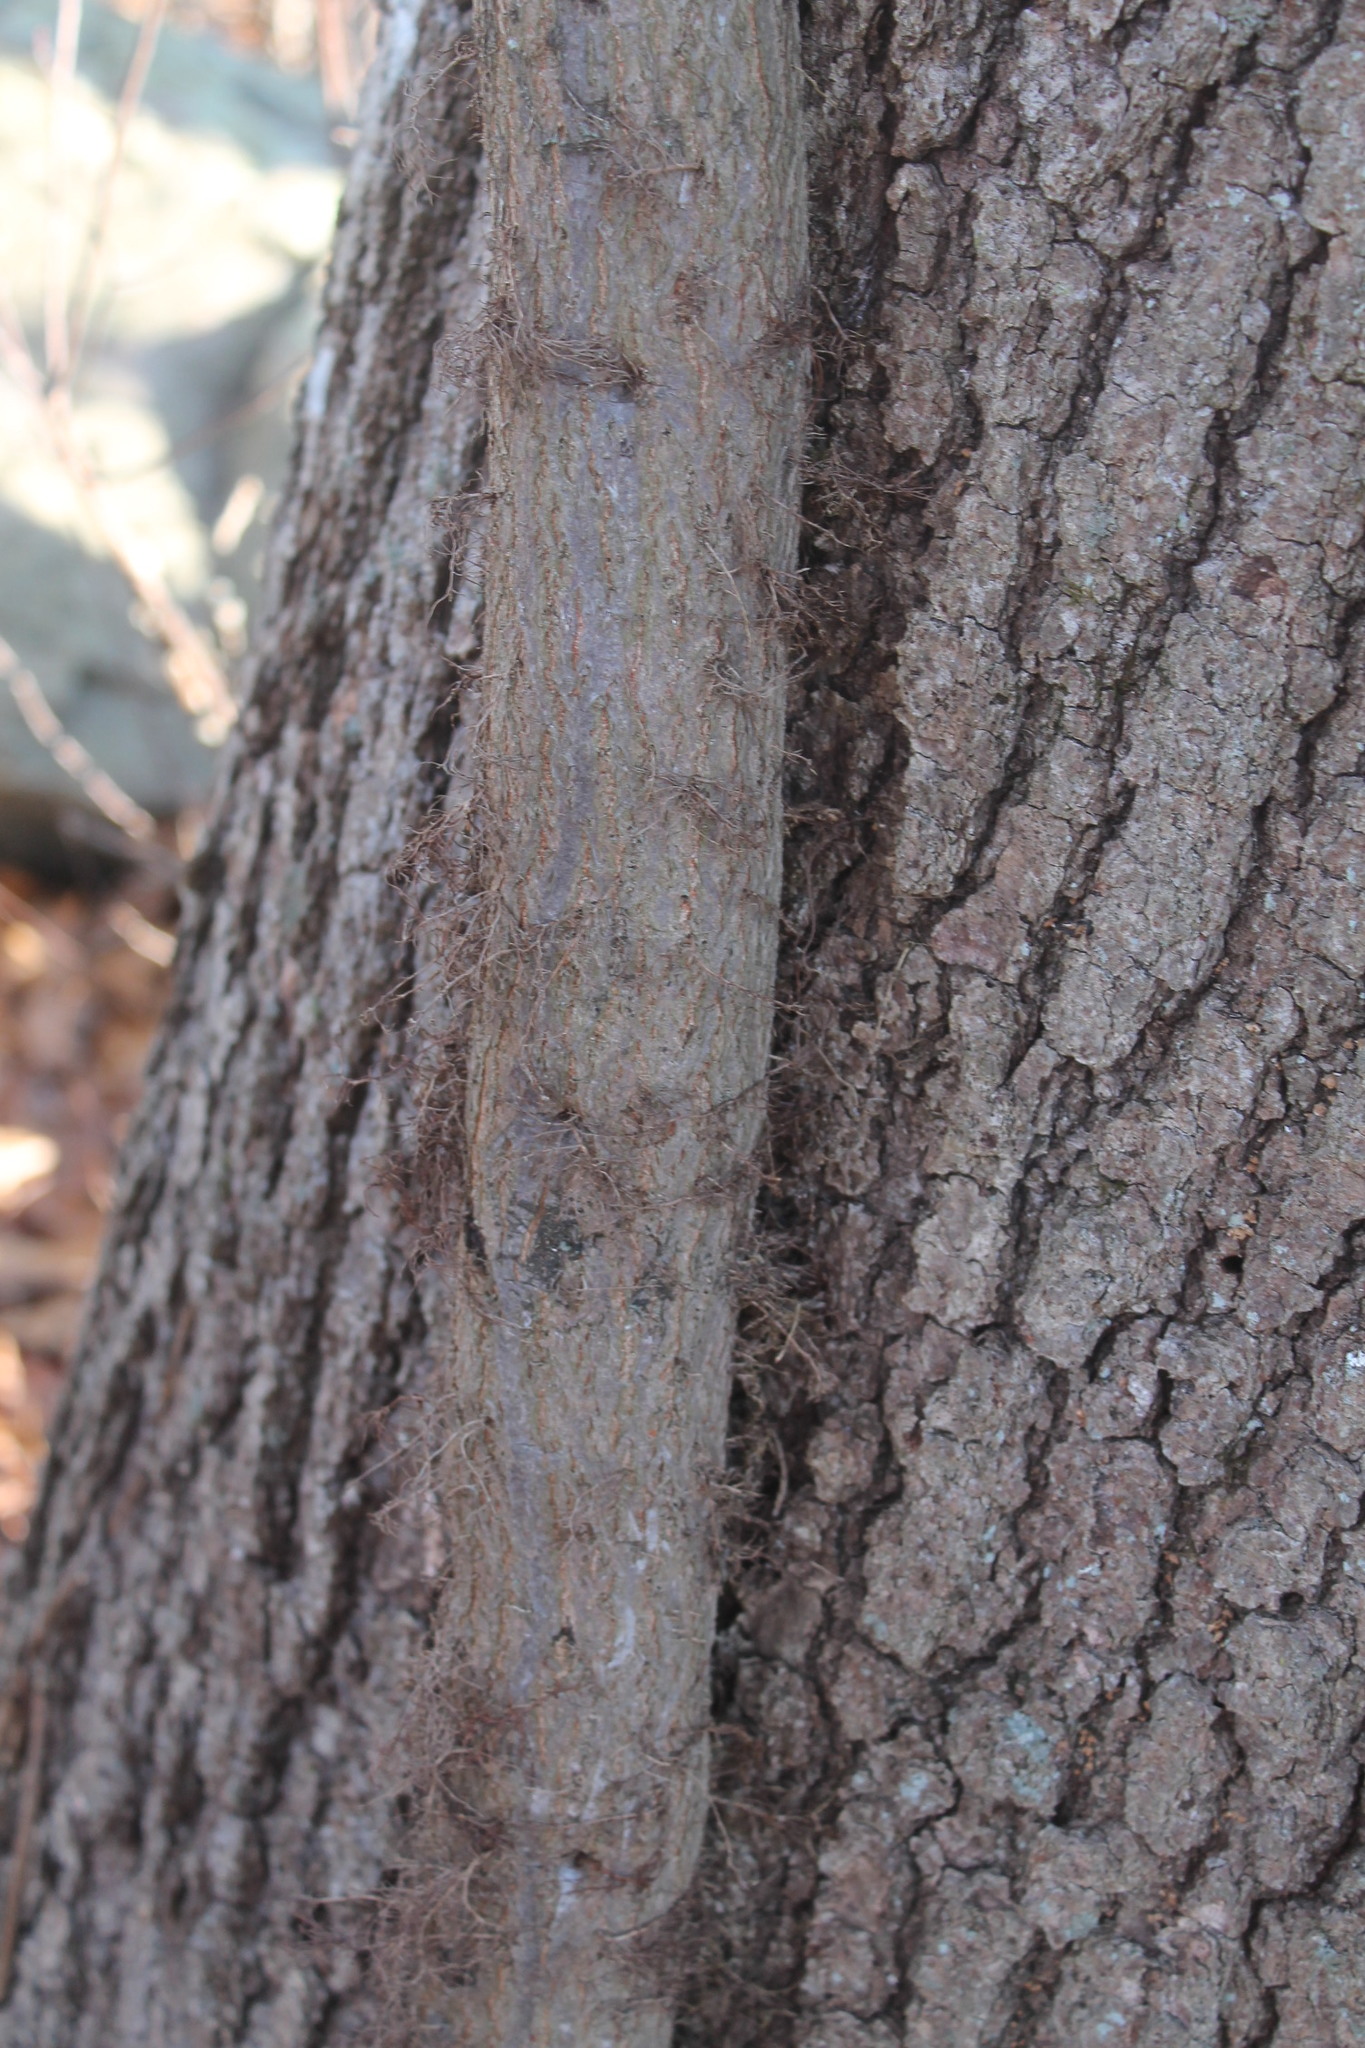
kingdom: Plantae
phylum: Tracheophyta
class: Magnoliopsida
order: Sapindales
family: Anacardiaceae
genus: Toxicodendron
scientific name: Toxicodendron radicans
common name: Poison ivy
